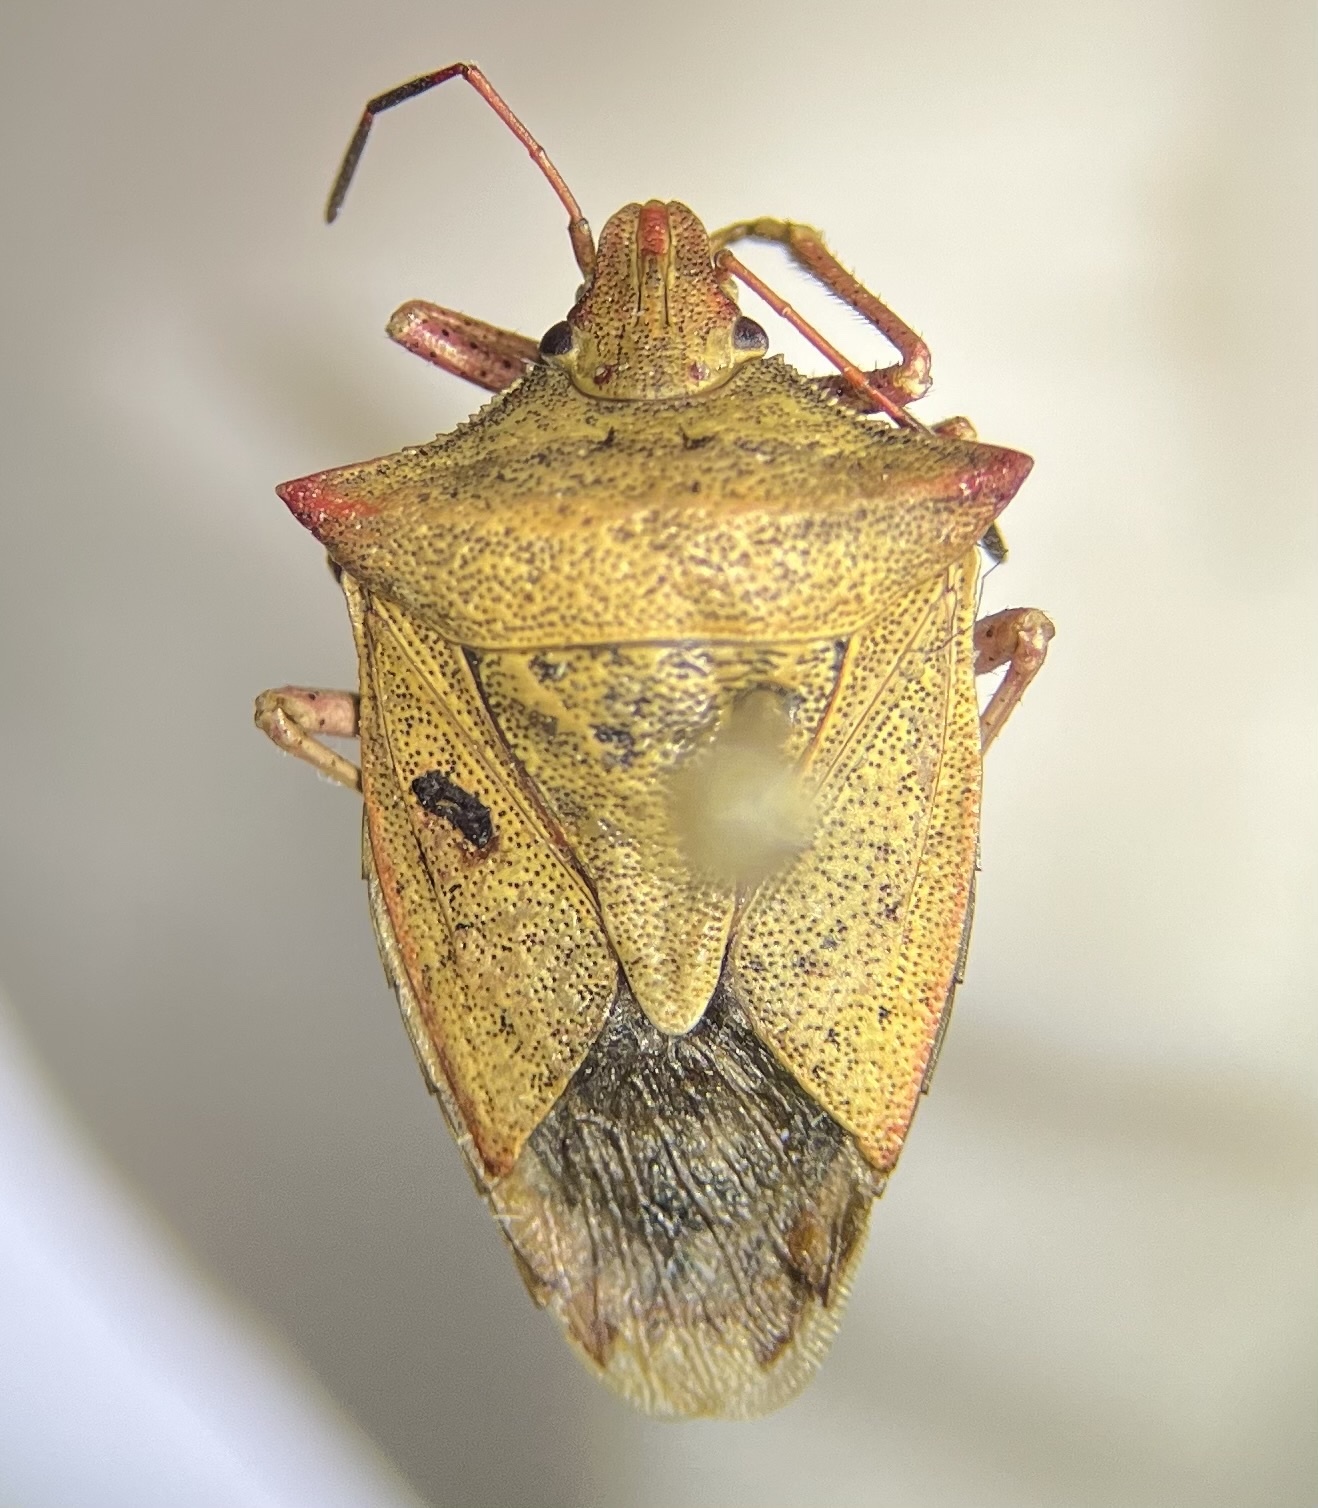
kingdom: Animalia
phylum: Arthropoda
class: Insecta
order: Hemiptera
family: Pentatomidae
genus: Euschistus
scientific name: Euschistus ictericus
